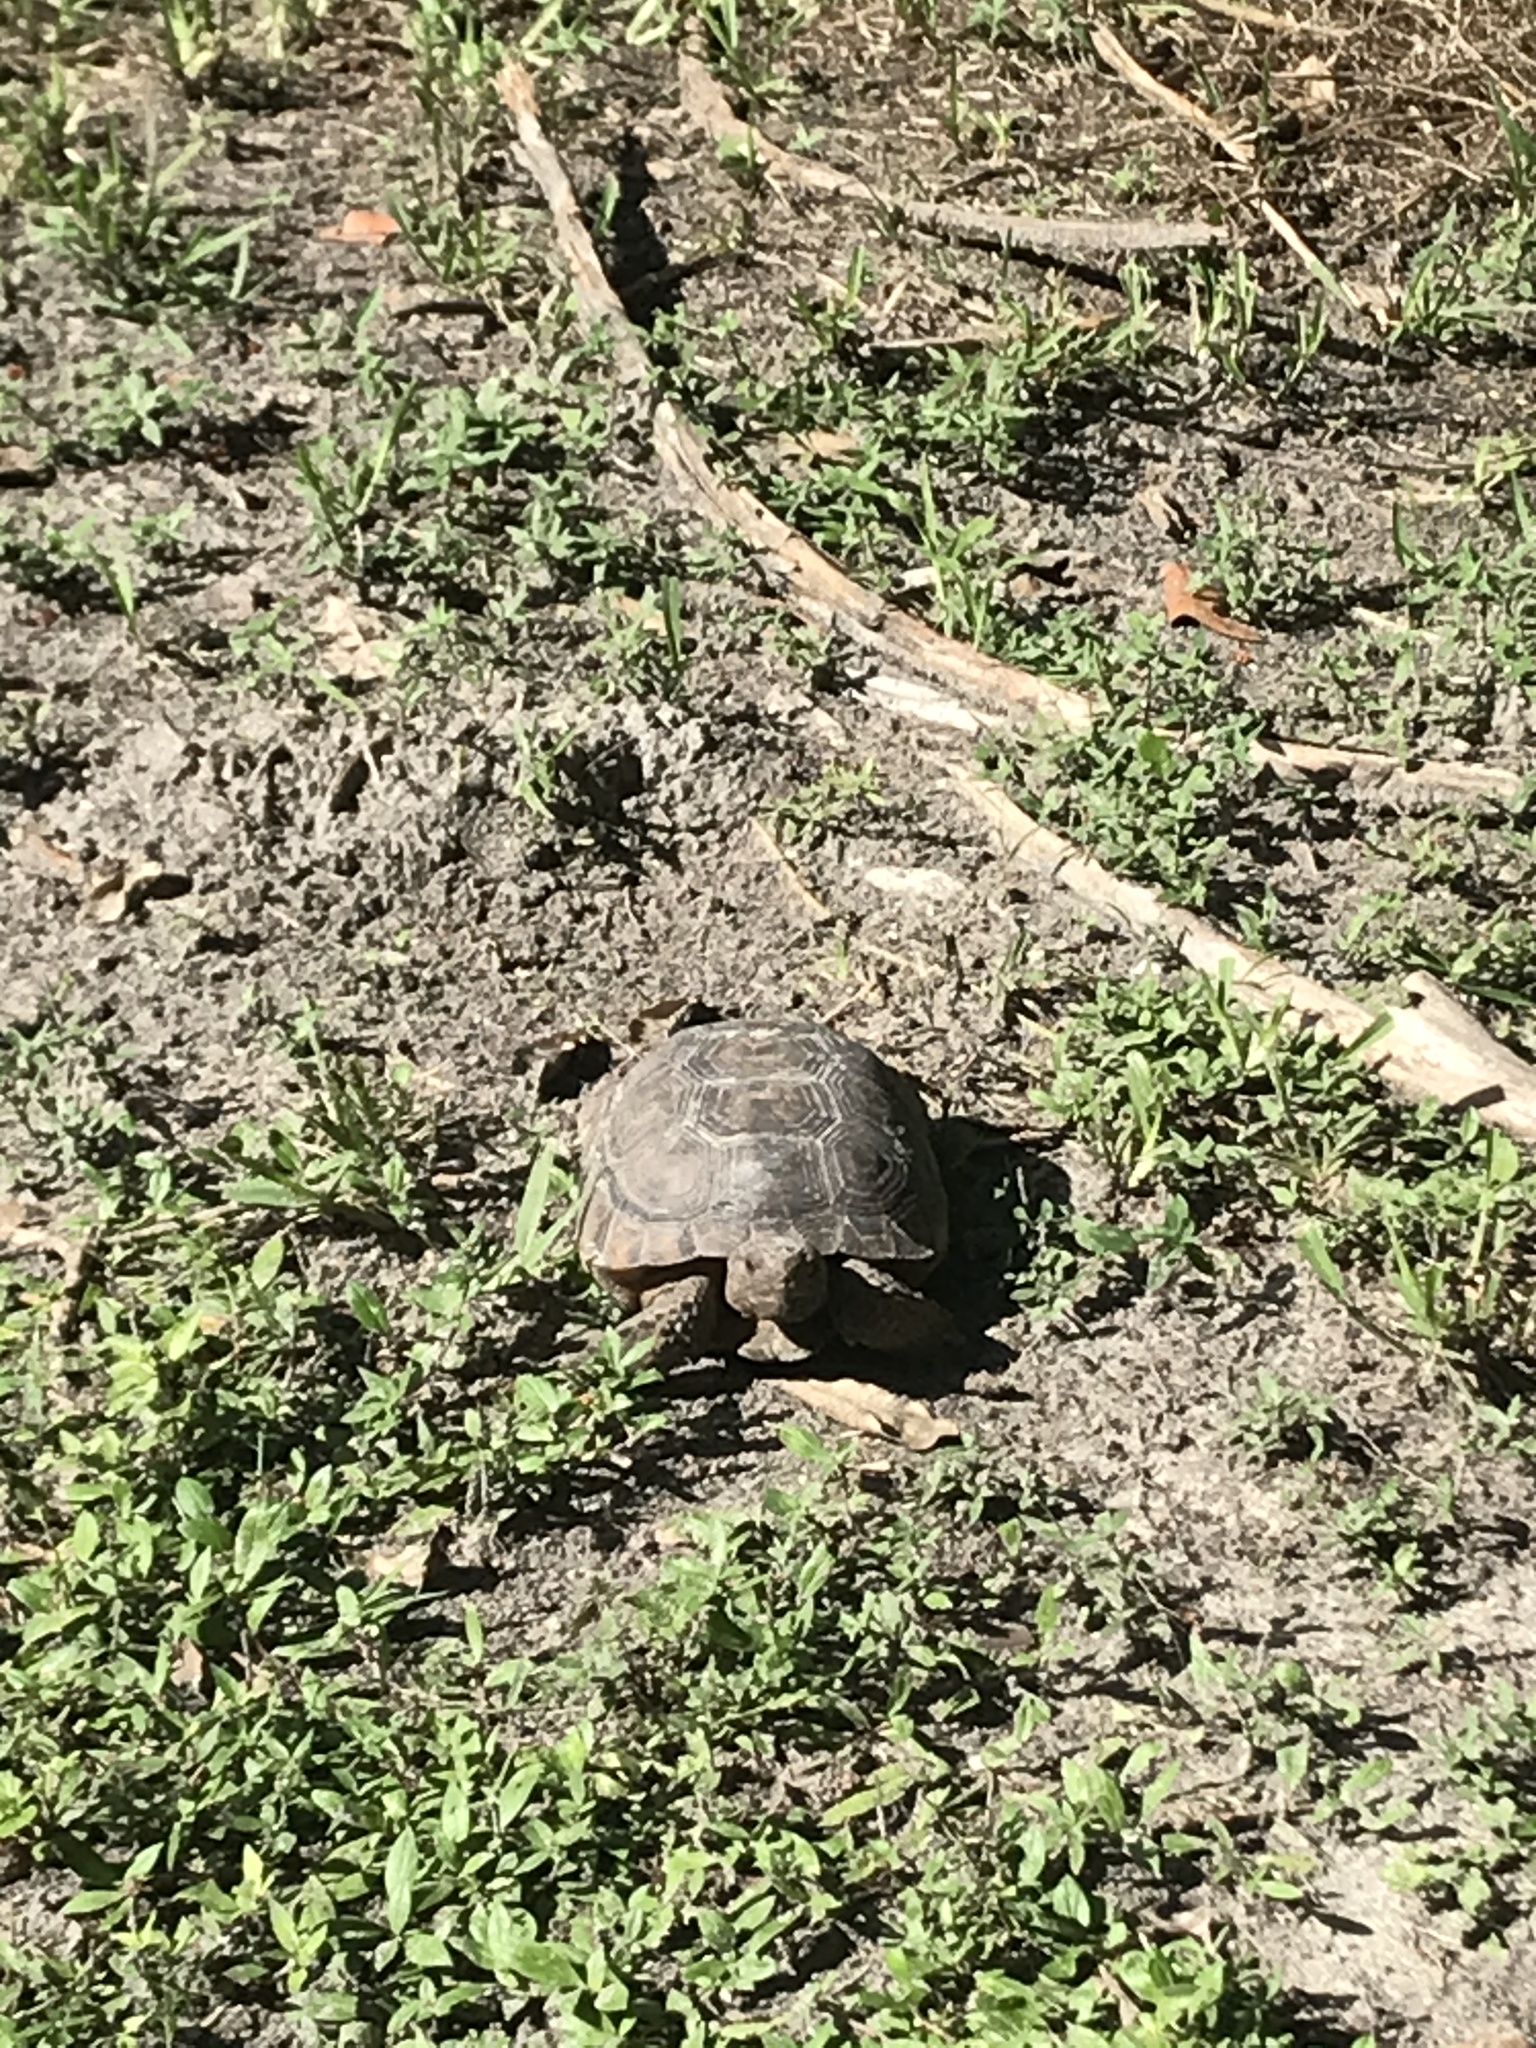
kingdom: Animalia
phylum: Chordata
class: Testudines
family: Testudinidae
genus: Gopherus
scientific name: Gopherus polyphemus
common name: Florida gopher tortoise
